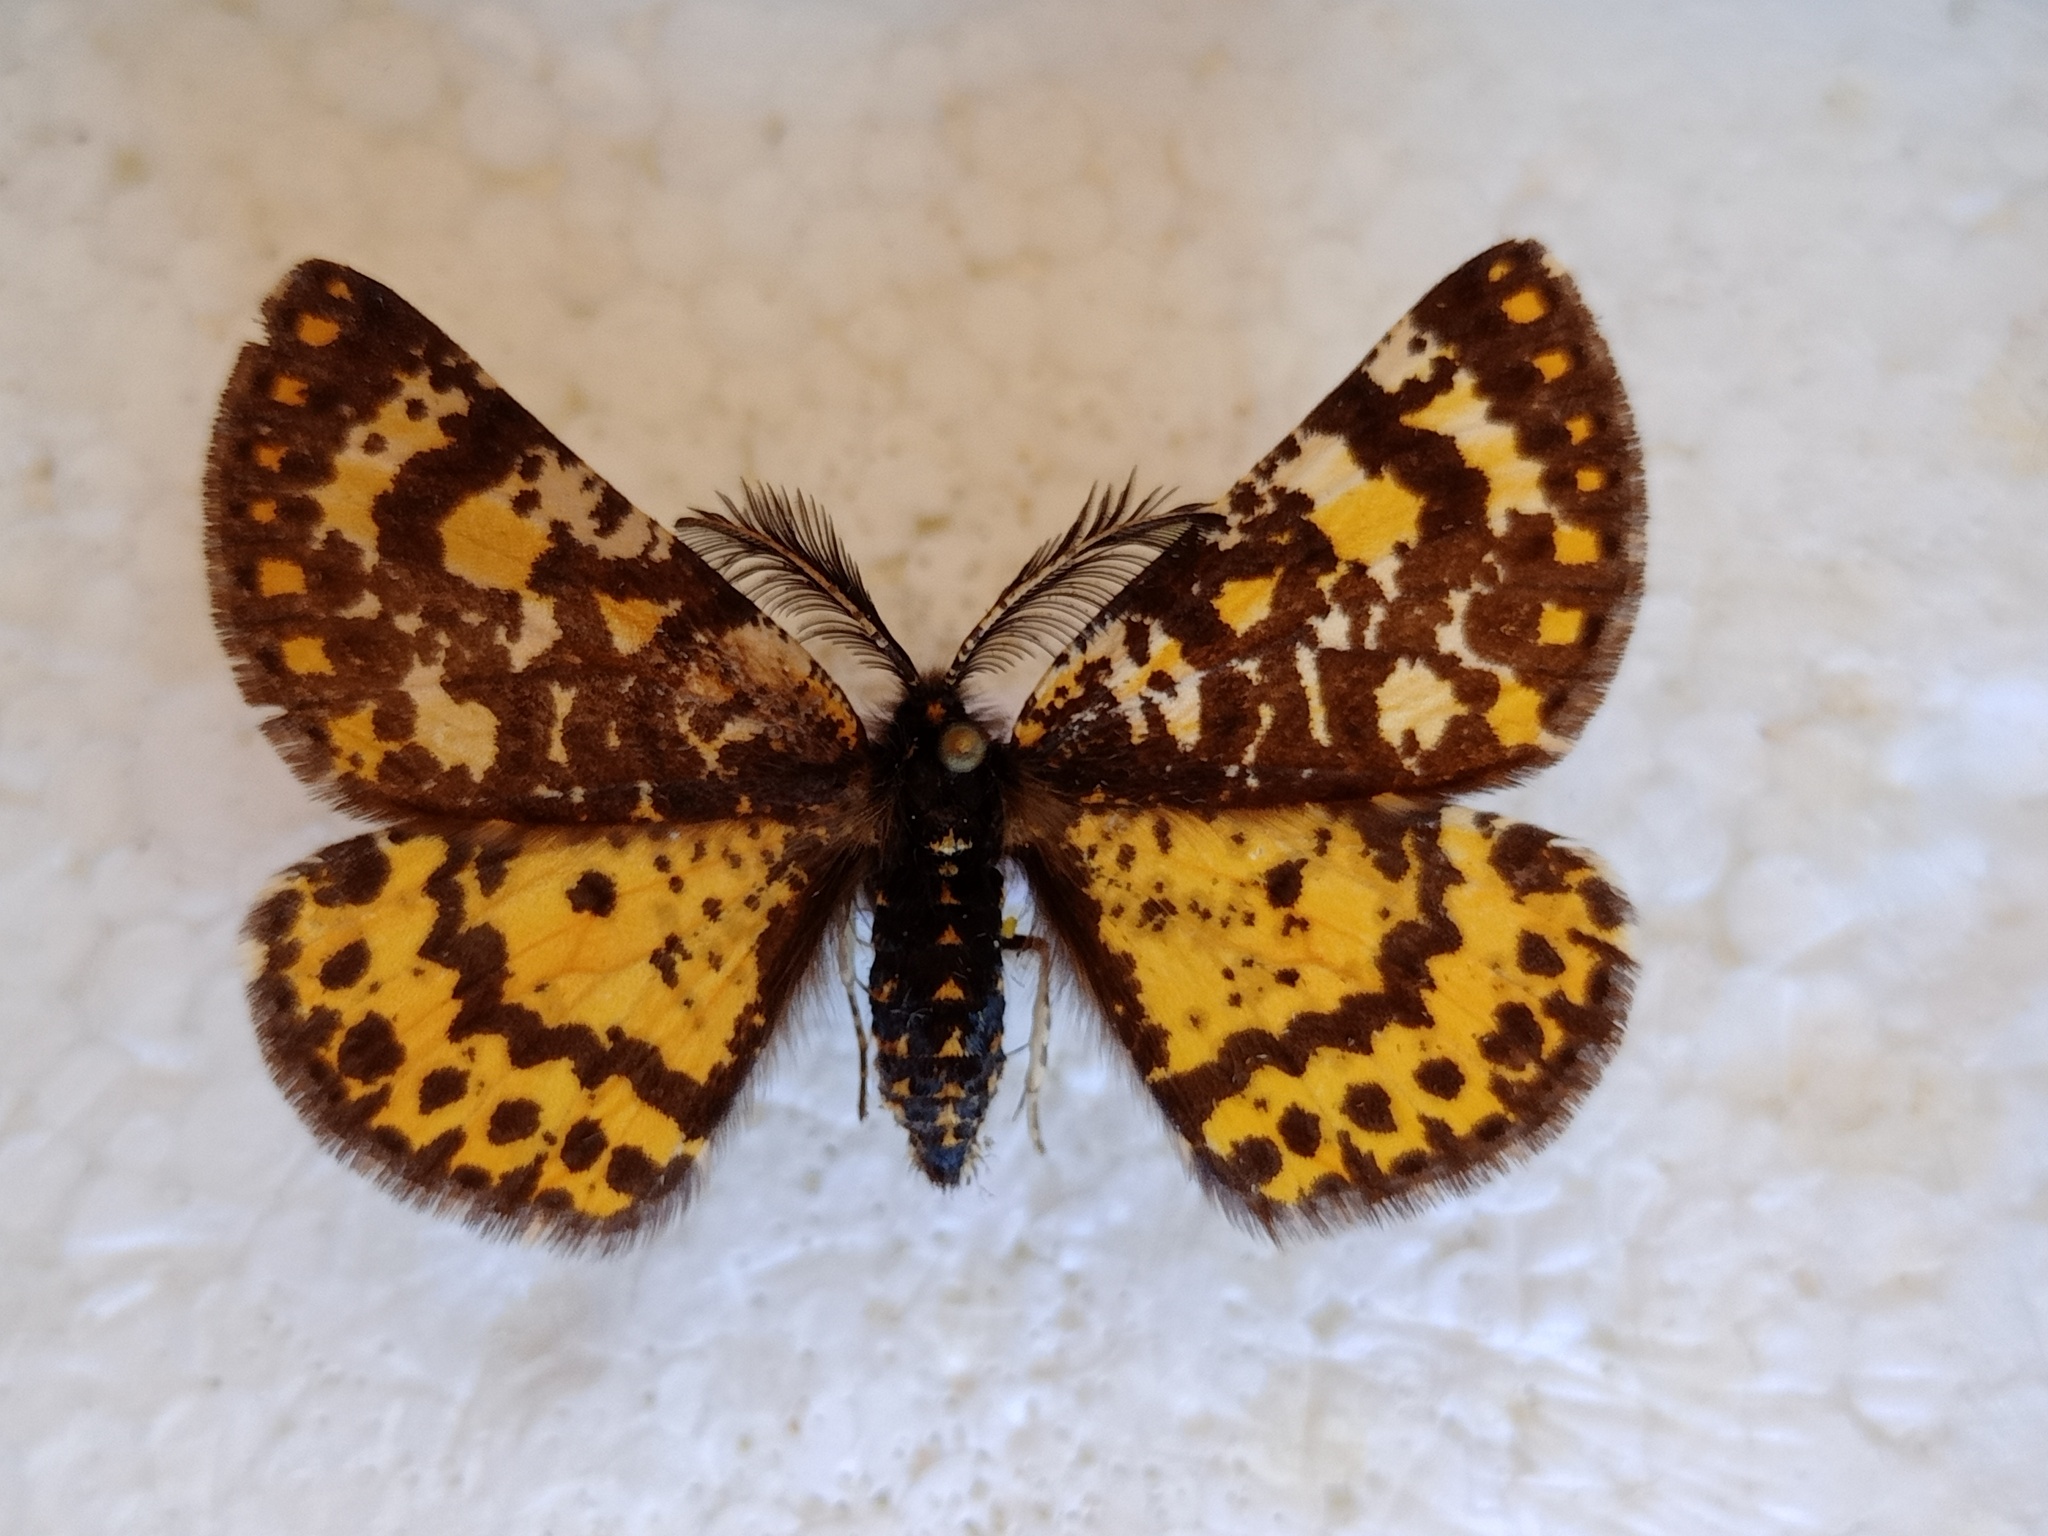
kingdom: Animalia
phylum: Arthropoda
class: Insecta
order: Lepidoptera
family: Geometridae
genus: Eurranthis
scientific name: Eurranthis plummistaria
